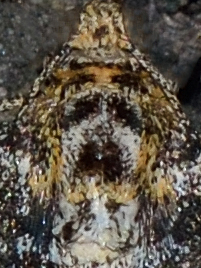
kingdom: Animalia
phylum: Arthropoda
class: Insecta
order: Lepidoptera
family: Geometridae
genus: Electrophaes
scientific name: Electrophaes corylata
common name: Broken-barred carpet
